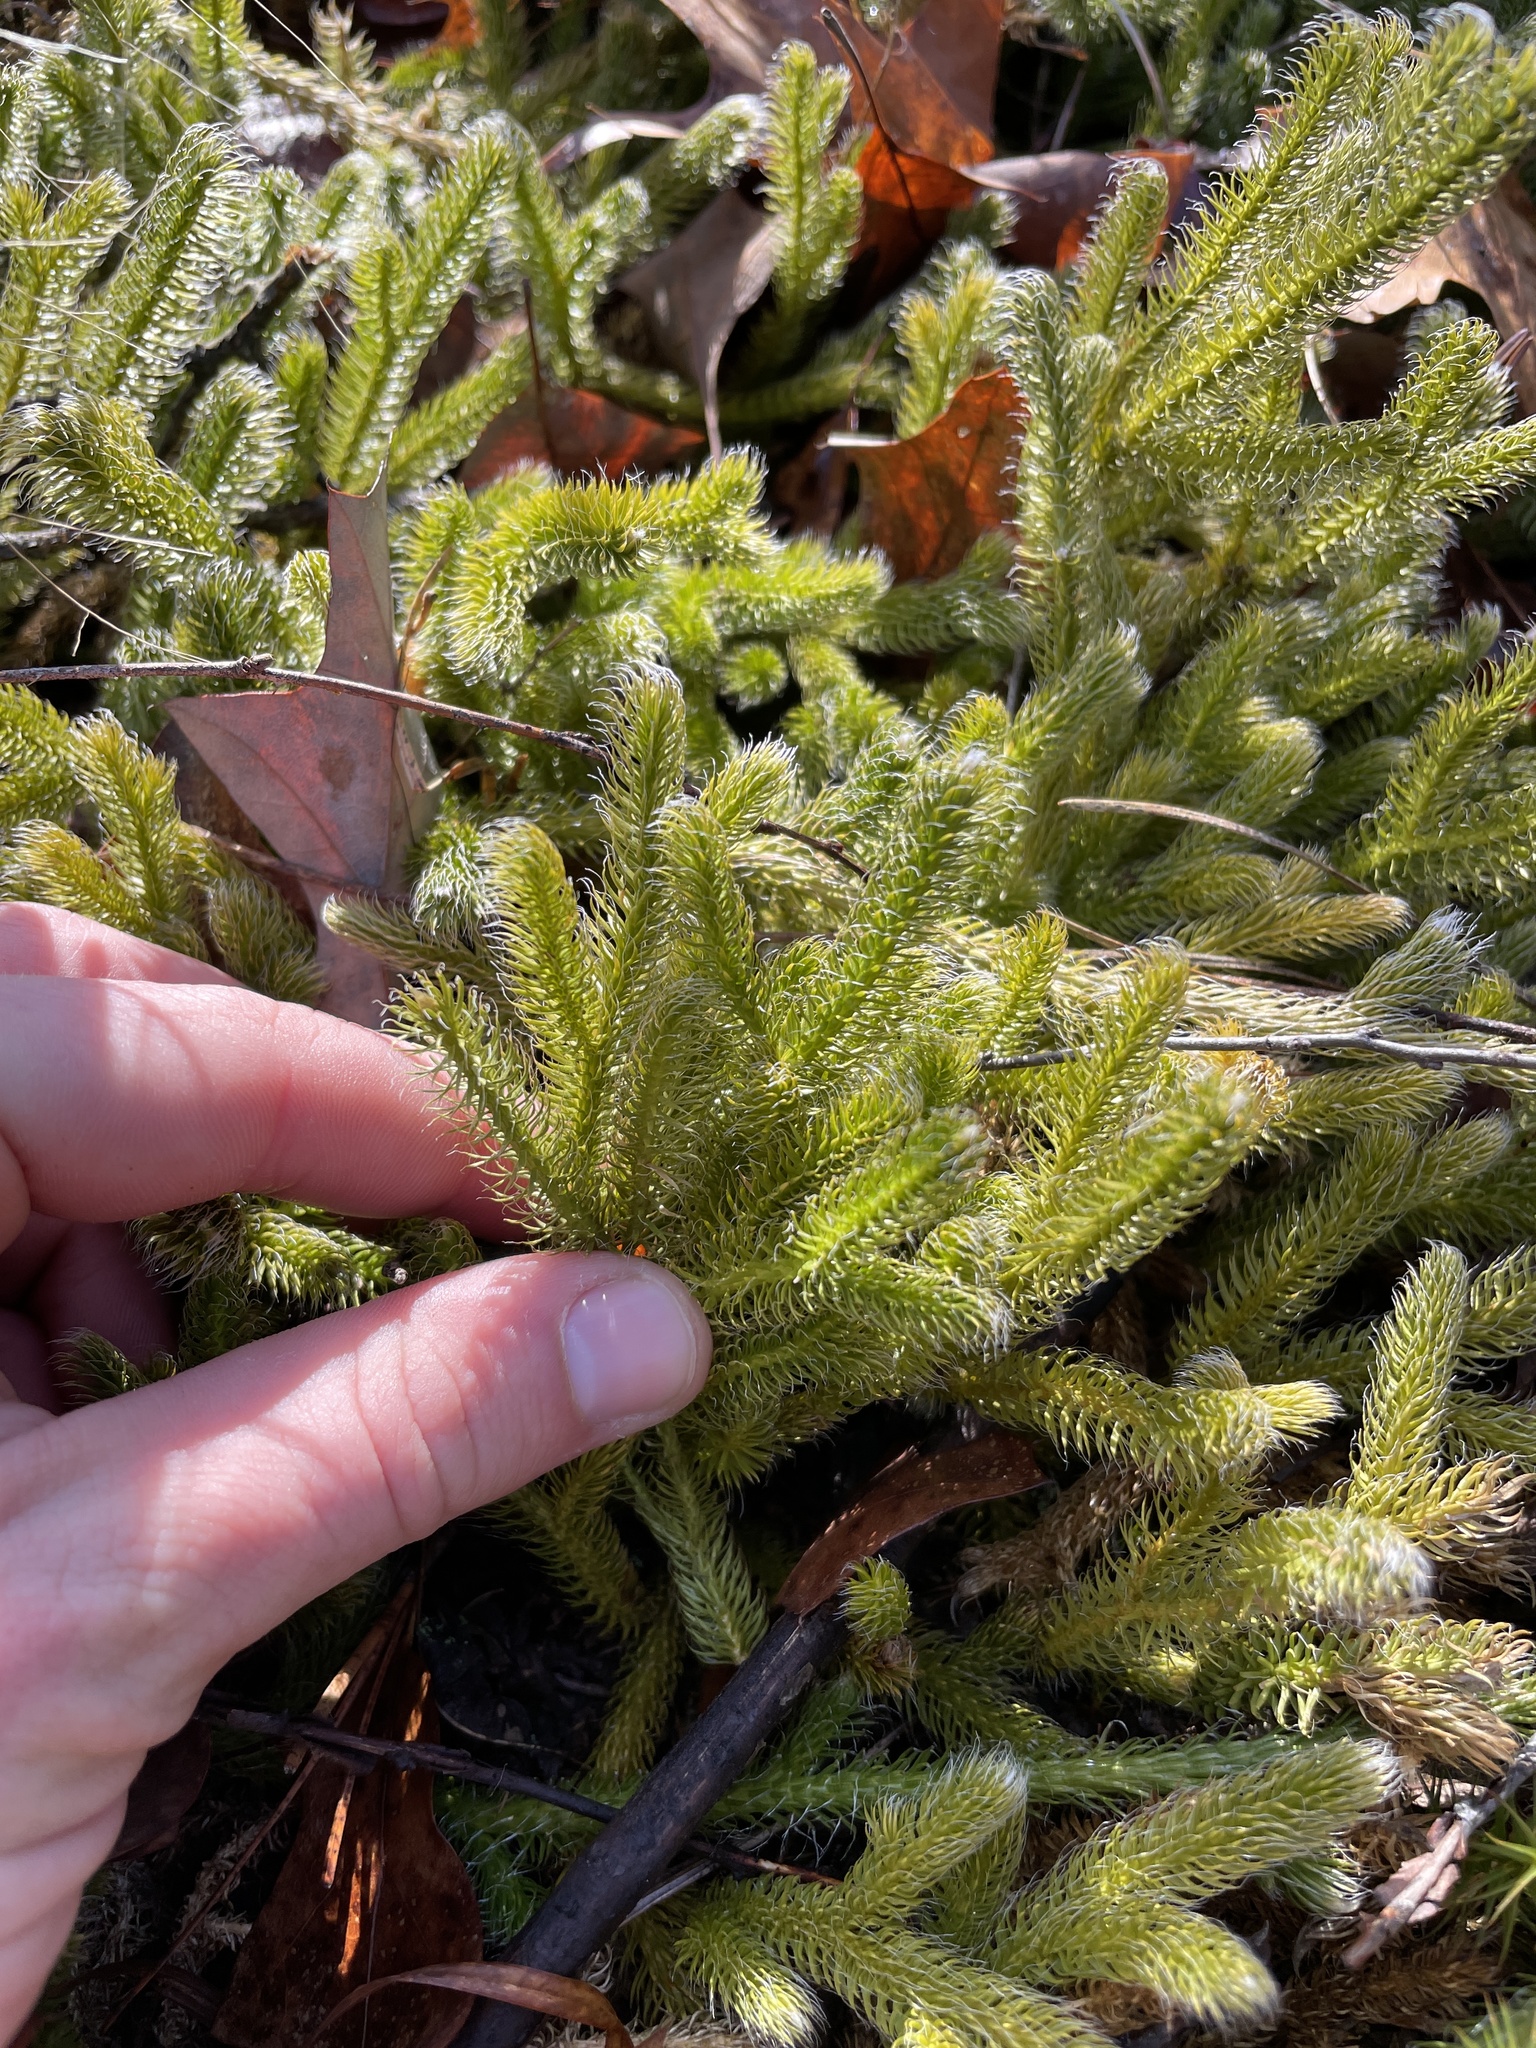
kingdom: Plantae
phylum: Tracheophyta
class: Lycopodiopsida
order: Lycopodiales
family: Lycopodiaceae
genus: Lycopodium
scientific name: Lycopodium clavatum
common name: Stag's-horn clubmoss
